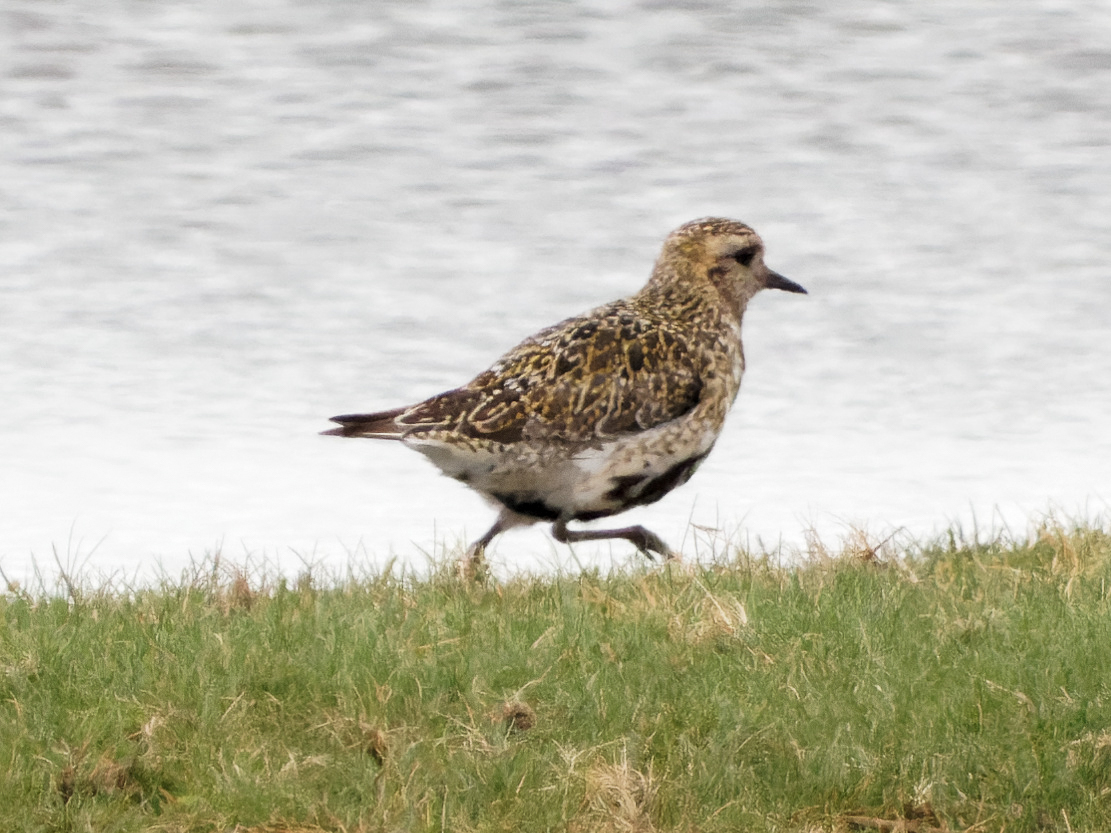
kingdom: Animalia
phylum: Chordata
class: Aves
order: Charadriiformes
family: Charadriidae
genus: Pluvialis
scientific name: Pluvialis apricaria
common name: European golden plover
